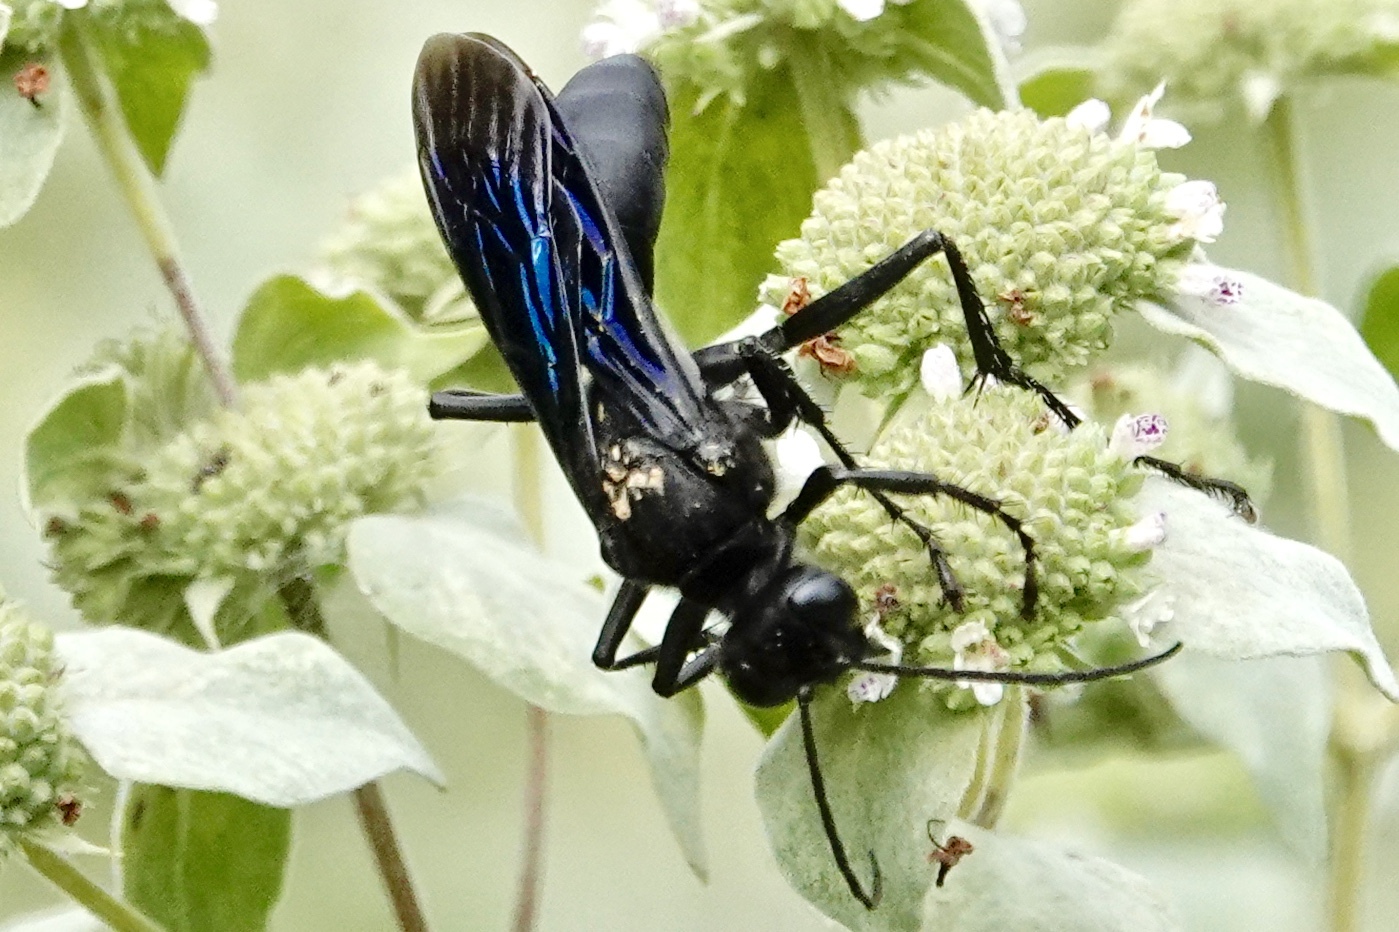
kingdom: Animalia
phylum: Arthropoda
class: Insecta
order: Hymenoptera
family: Sphecidae
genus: Sphex
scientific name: Sphex pensylvanicus
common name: Great black digger wasp
